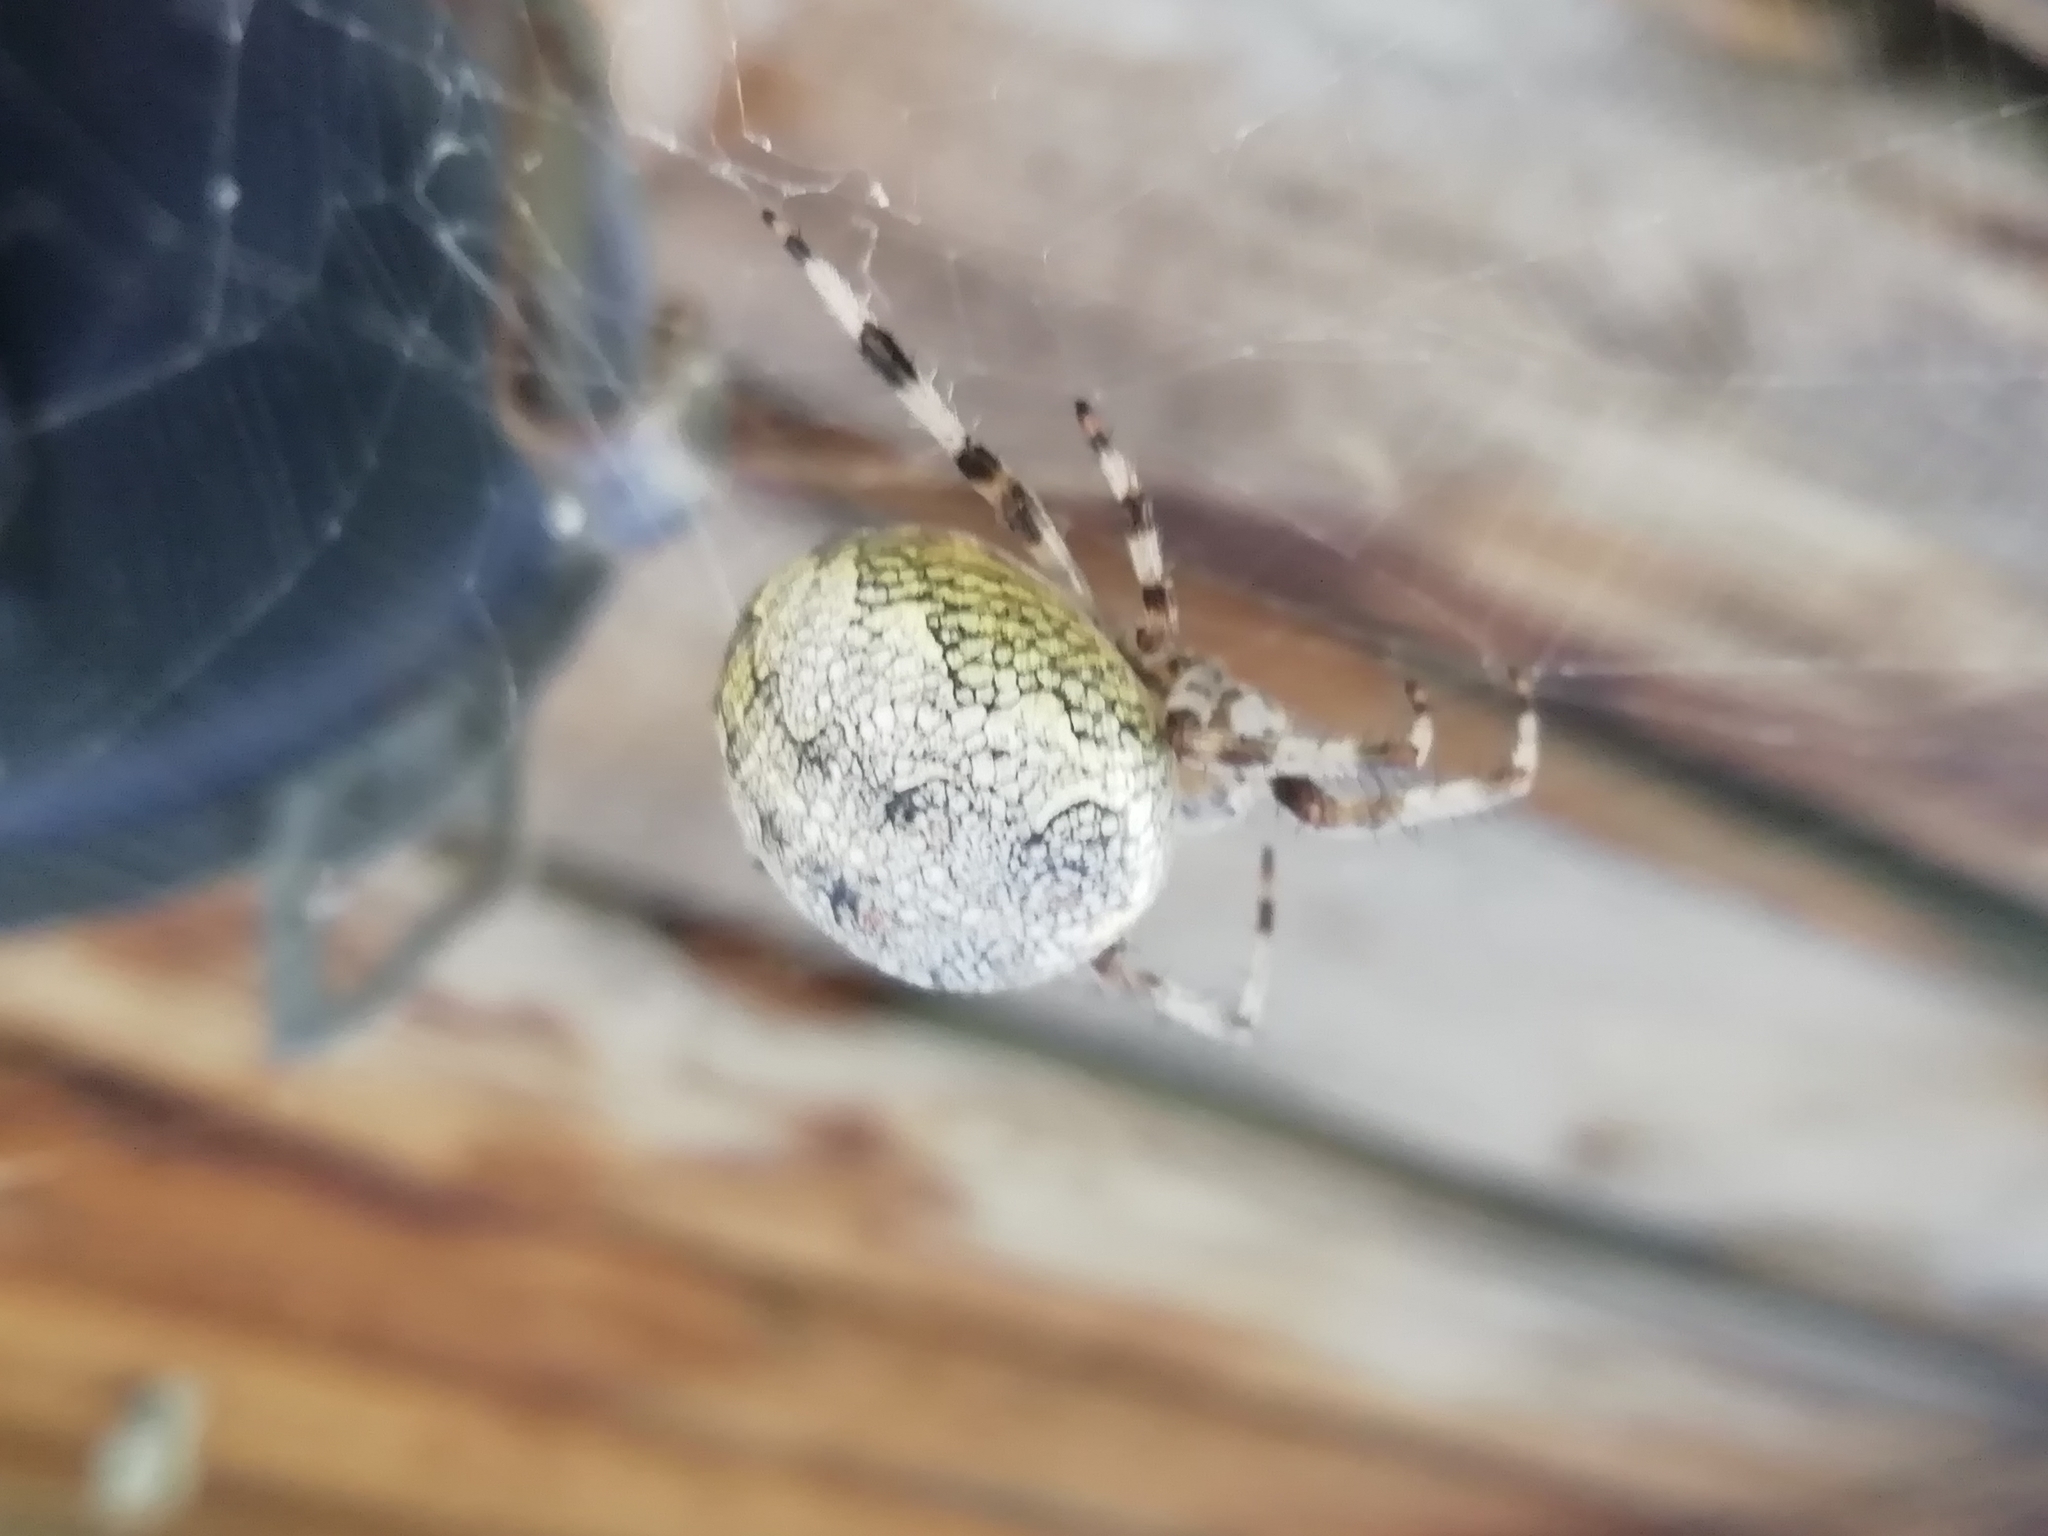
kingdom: Animalia
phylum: Arthropoda
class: Arachnida
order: Araneae
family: Araneidae
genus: Araneus
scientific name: Araneus marmoreus
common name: Marbled orbweaver
